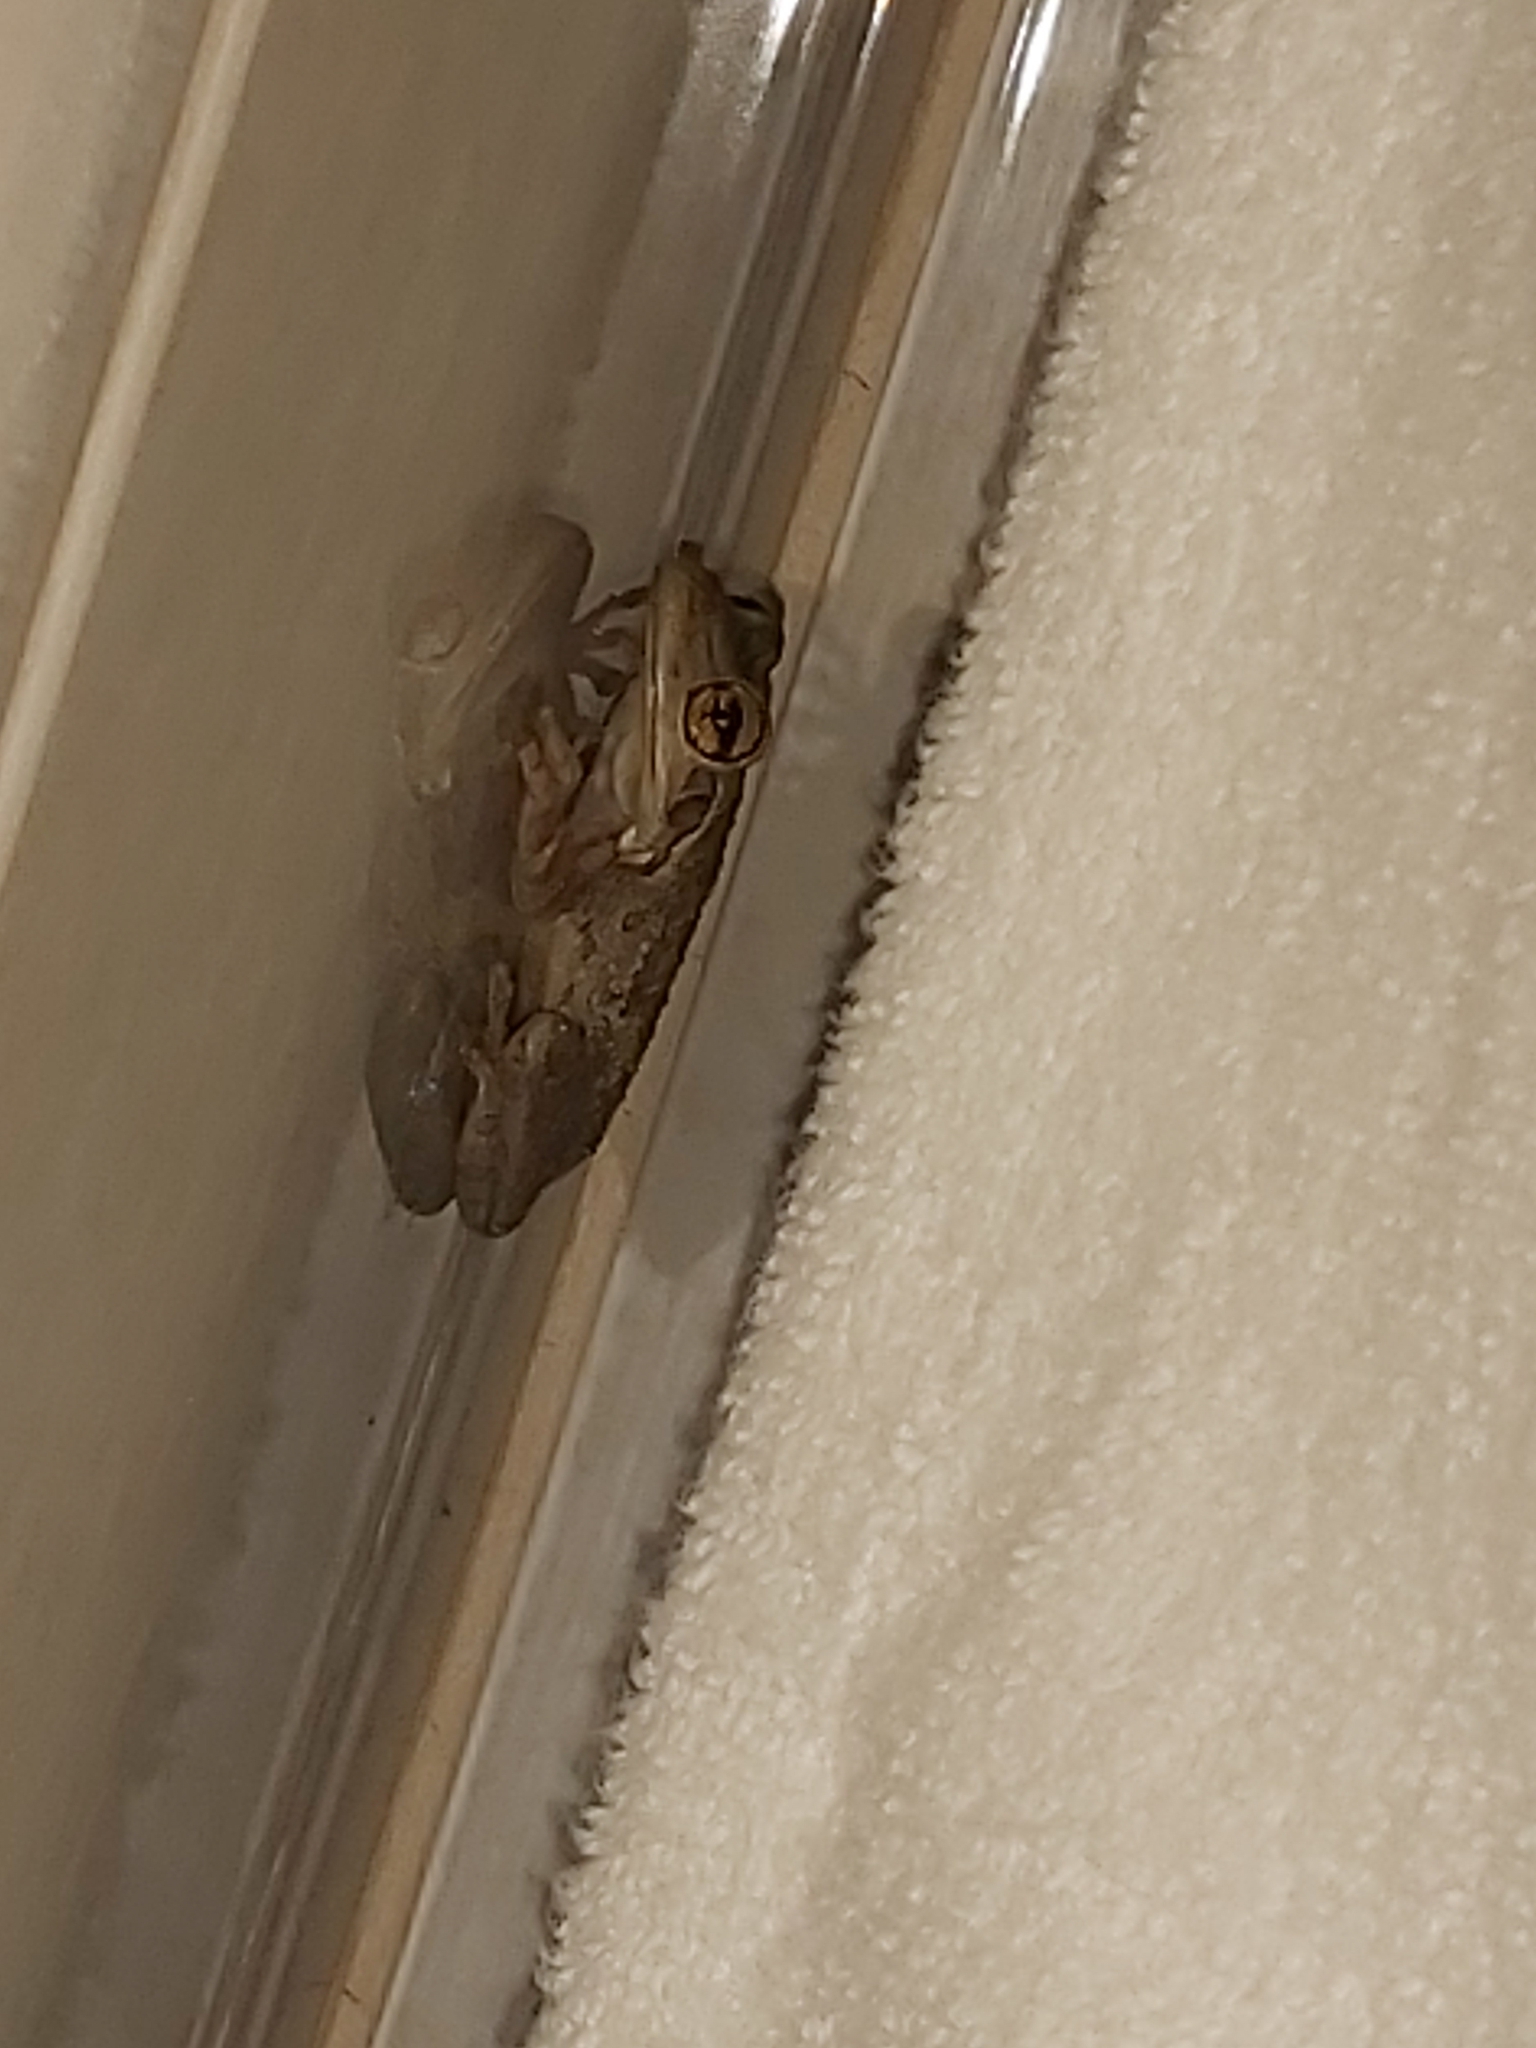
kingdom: Animalia
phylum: Chordata
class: Amphibia
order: Anura
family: Hylidae
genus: Osteopilus
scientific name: Osteopilus septentrionalis
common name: Cuban treefrog
